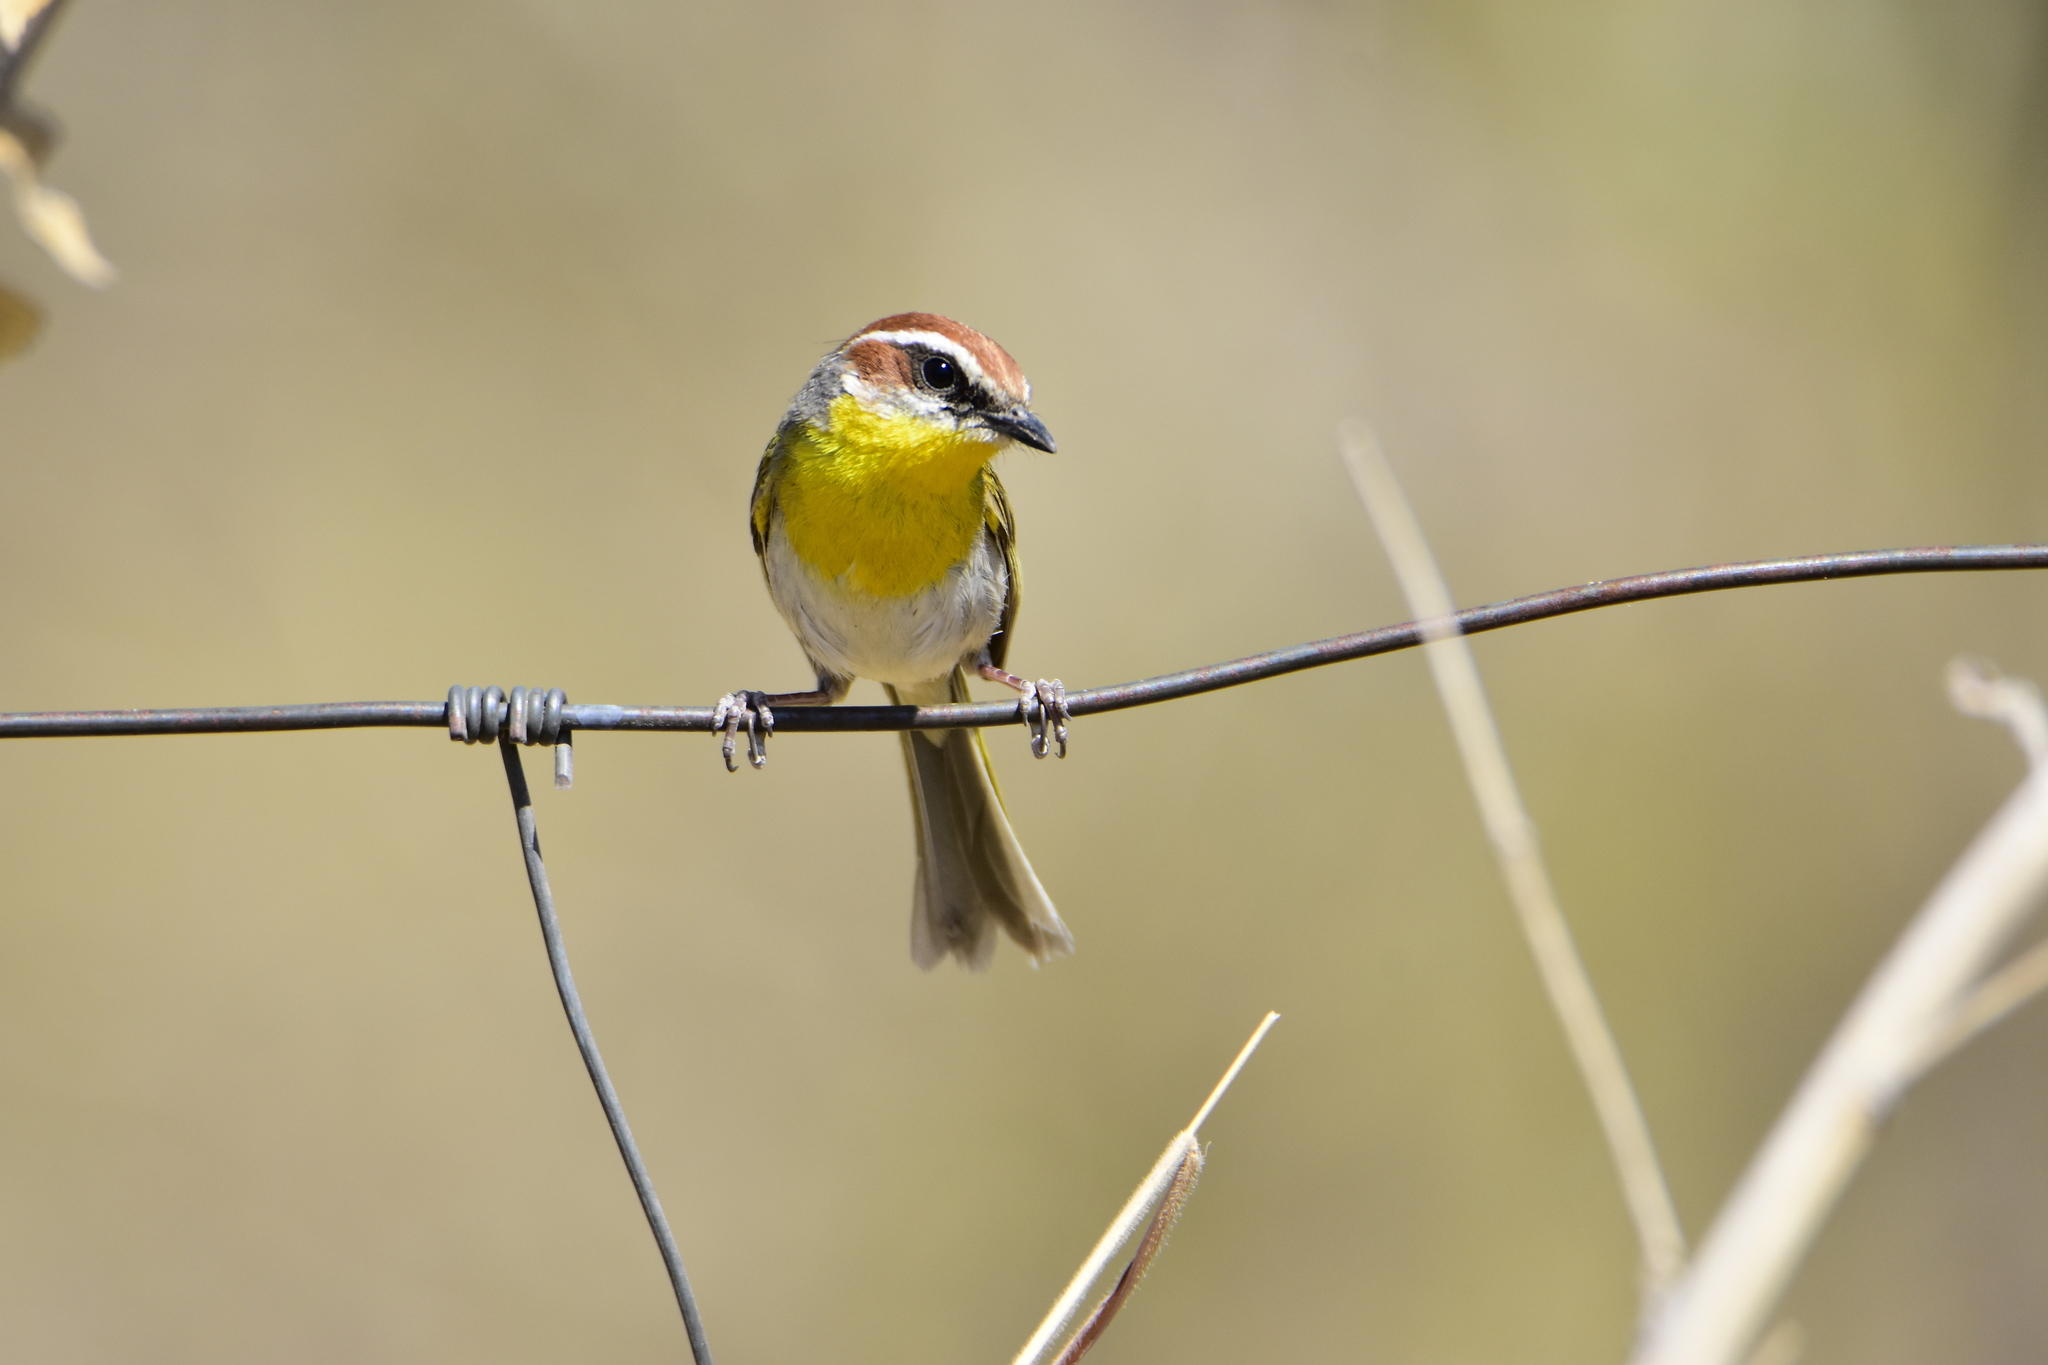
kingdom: Animalia
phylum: Chordata
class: Aves
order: Passeriformes
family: Parulidae
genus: Basileuterus
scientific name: Basileuterus rufifrons
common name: Rufous-capped warbler
